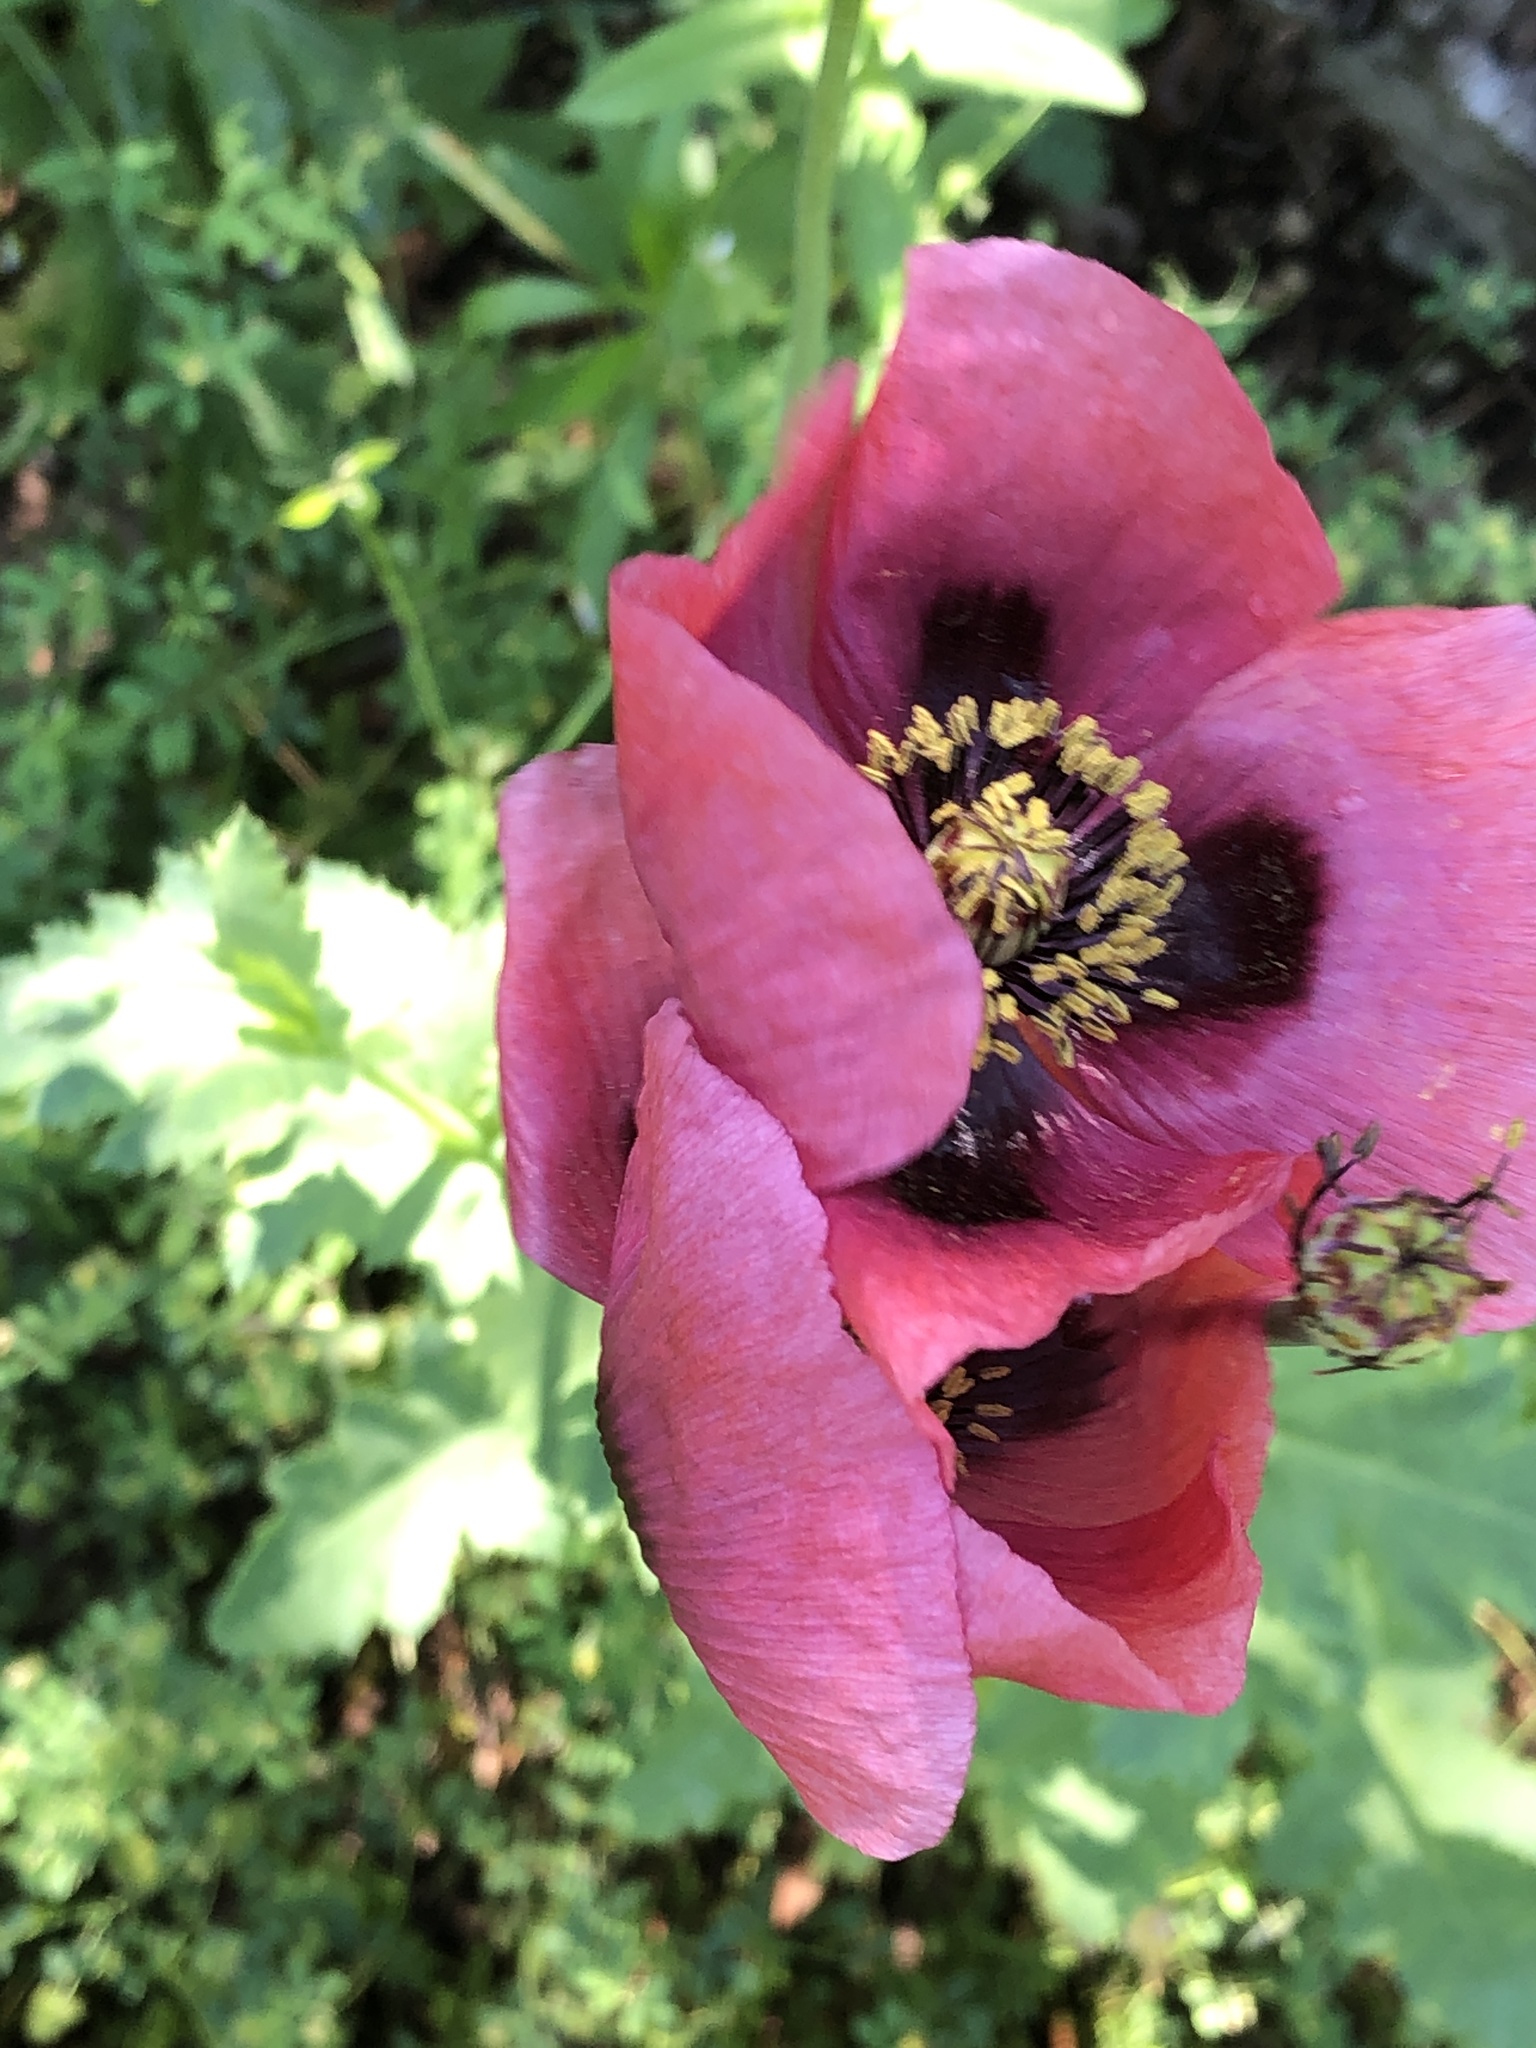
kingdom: Plantae
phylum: Tracheophyta
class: Magnoliopsida
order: Ranunculales
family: Papaveraceae
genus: Papaver
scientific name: Papaver somniferum
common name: Opium poppy
